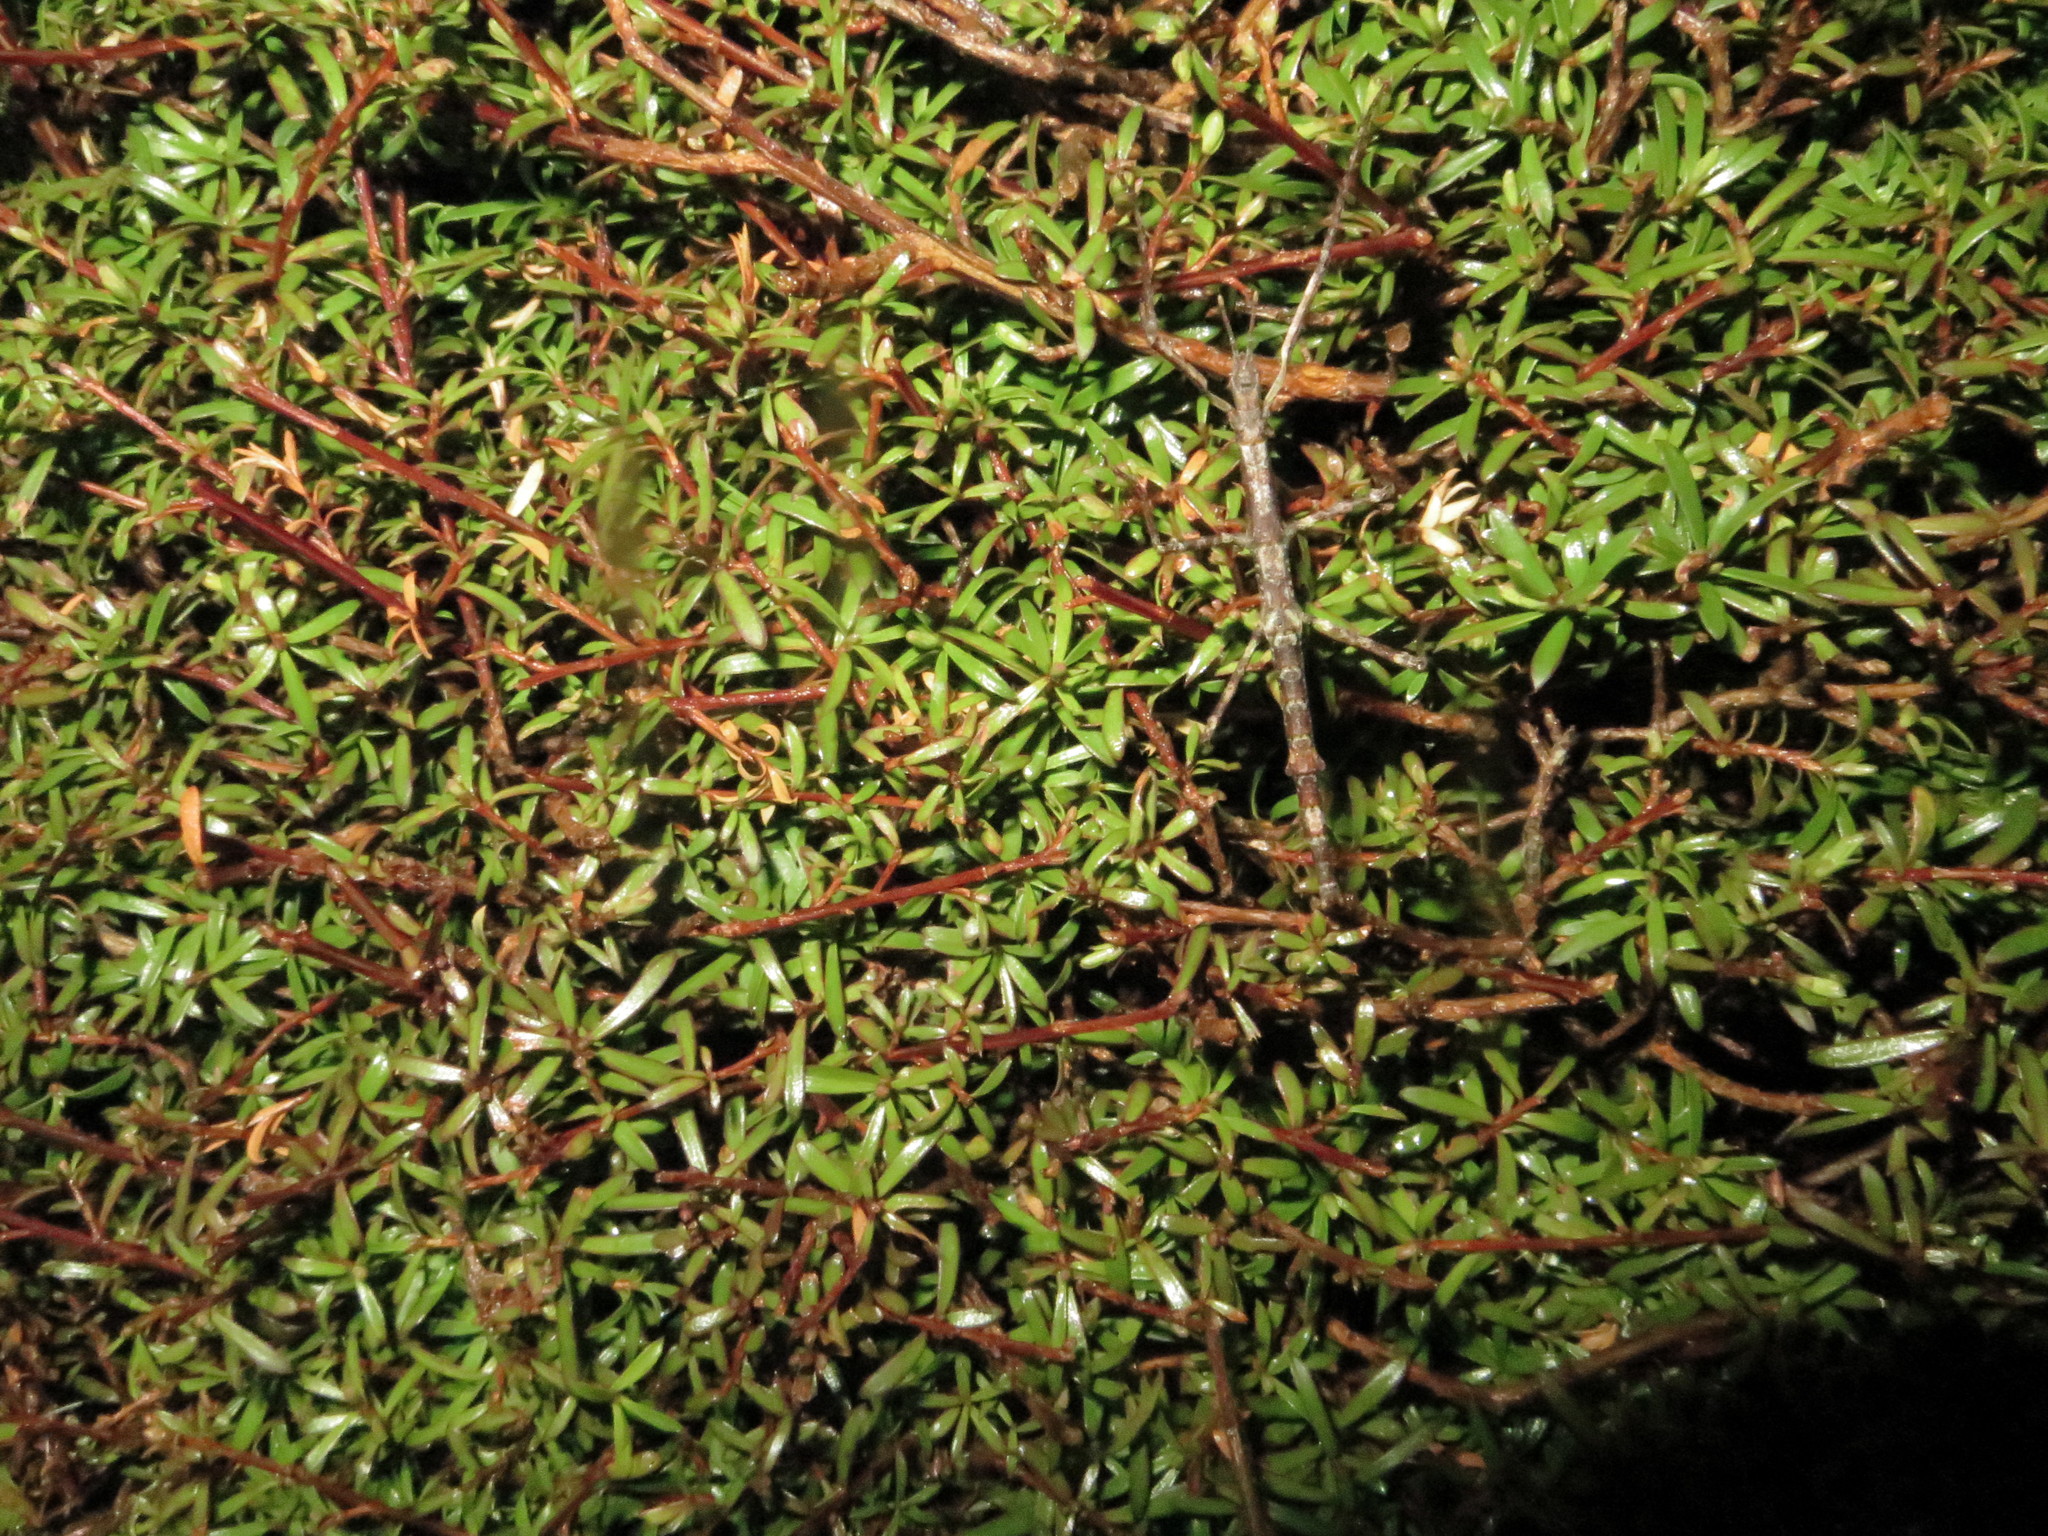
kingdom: Animalia
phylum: Arthropoda
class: Insecta
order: Phasmida
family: Phasmatidae
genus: Niveaphasma
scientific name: Niveaphasma annulatum
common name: Hutton's stick insect
